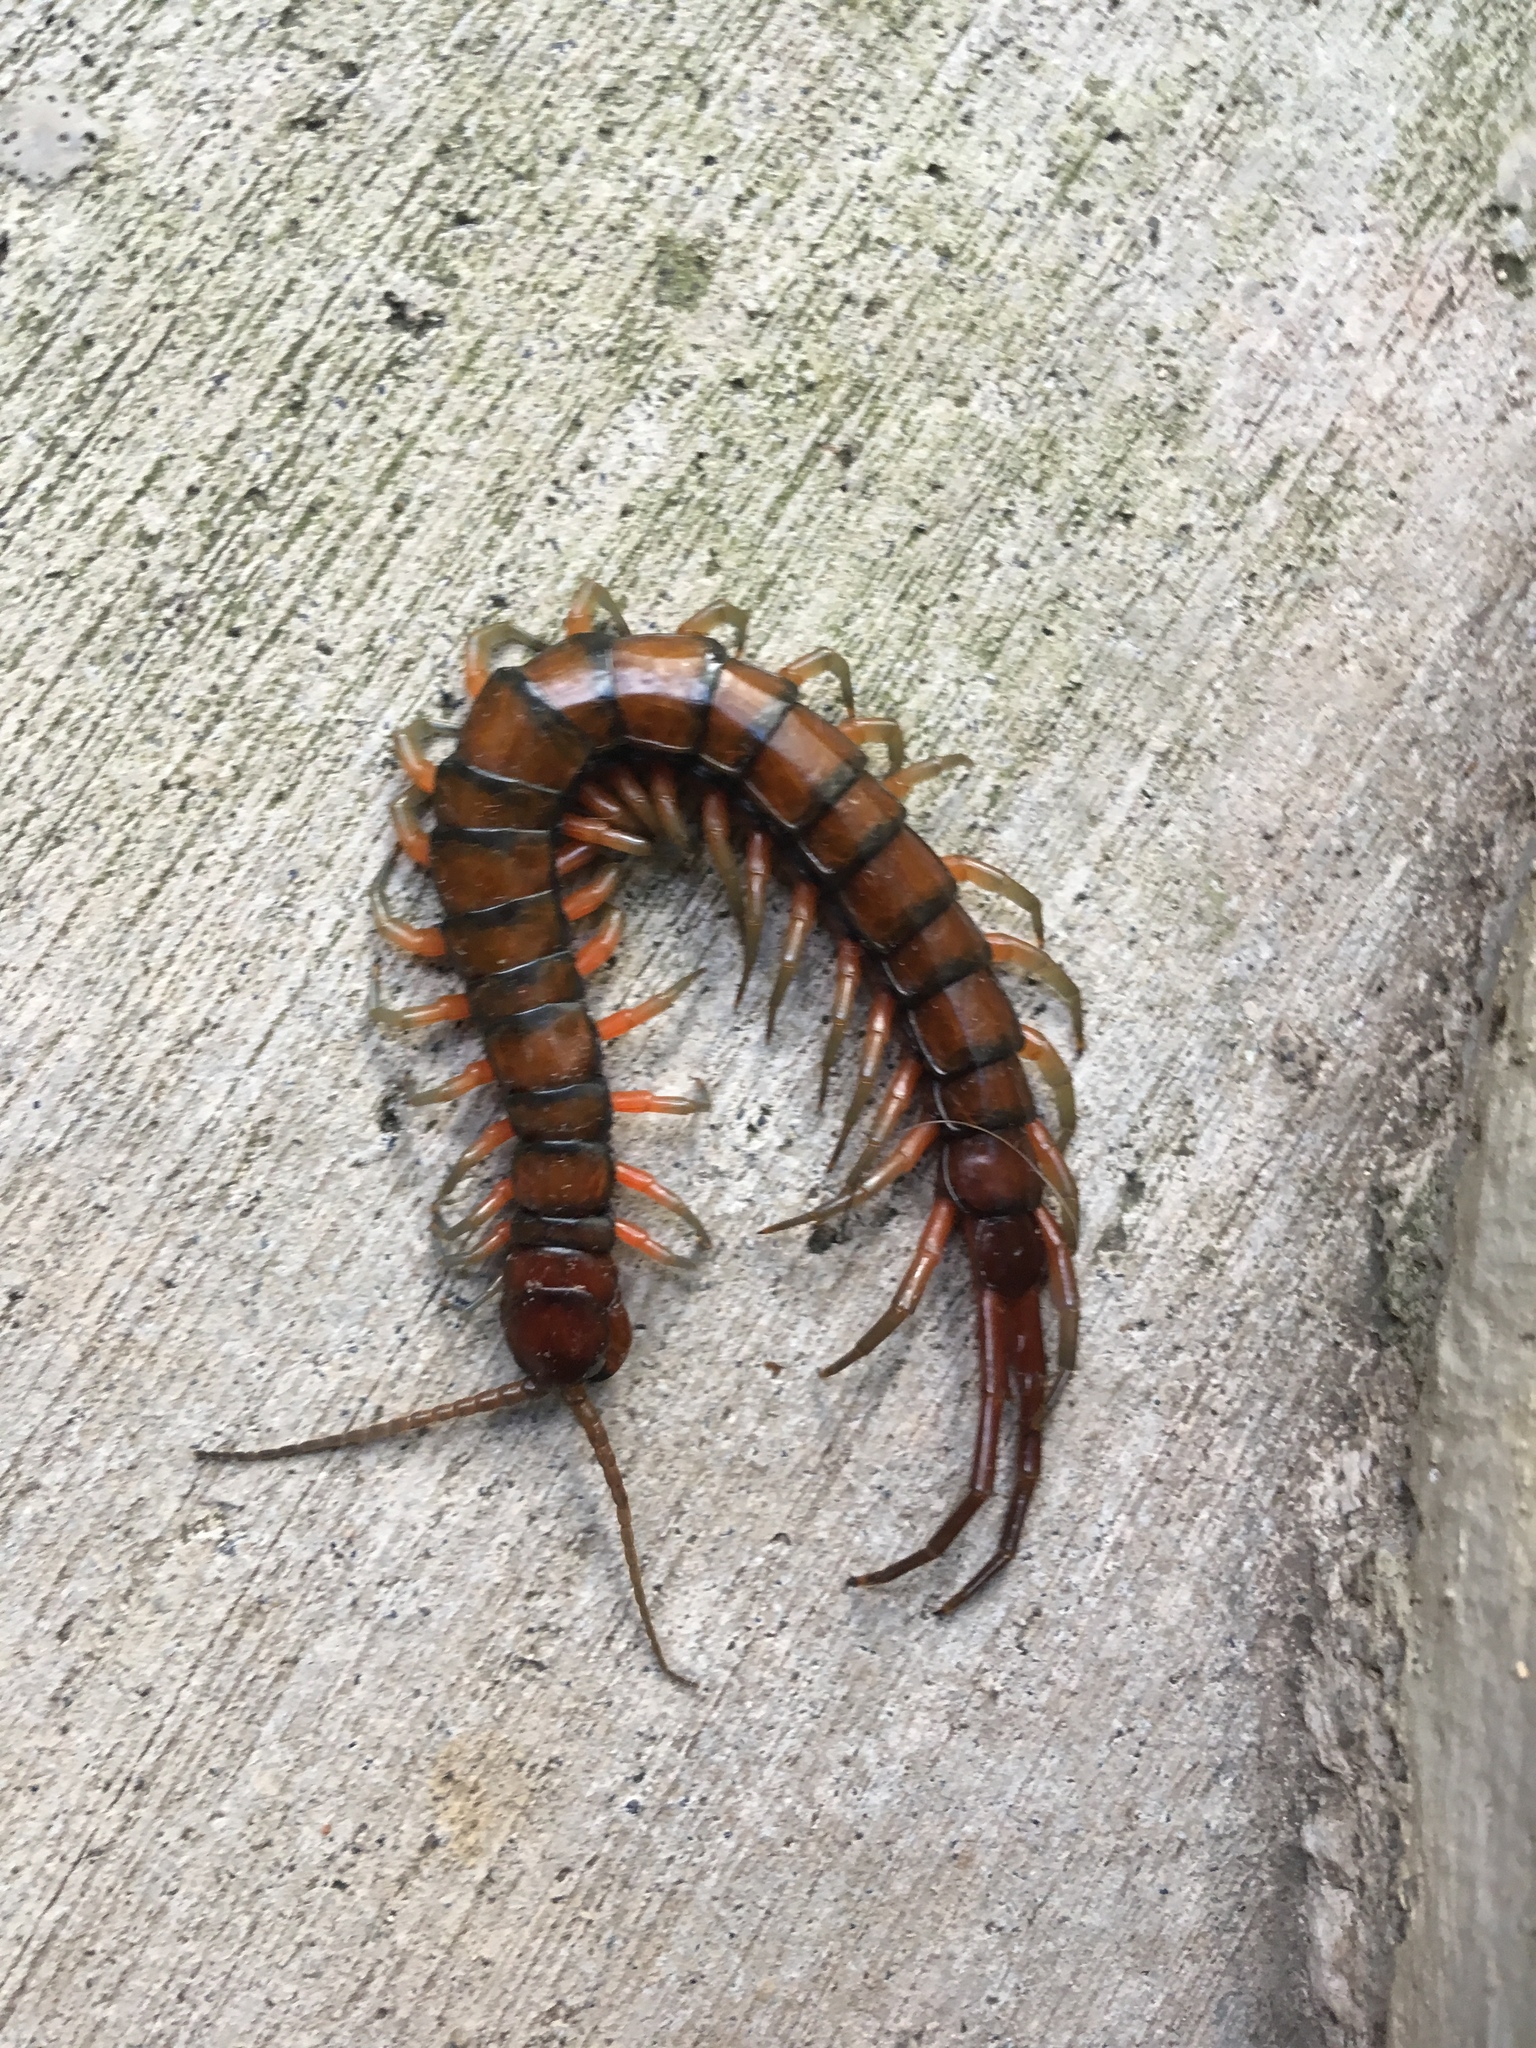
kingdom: Animalia
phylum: Arthropoda
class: Chilopoda
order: Scolopendromorpha
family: Scolopendridae
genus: Scolopendra
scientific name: Scolopendra subspinipes
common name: Centipede
